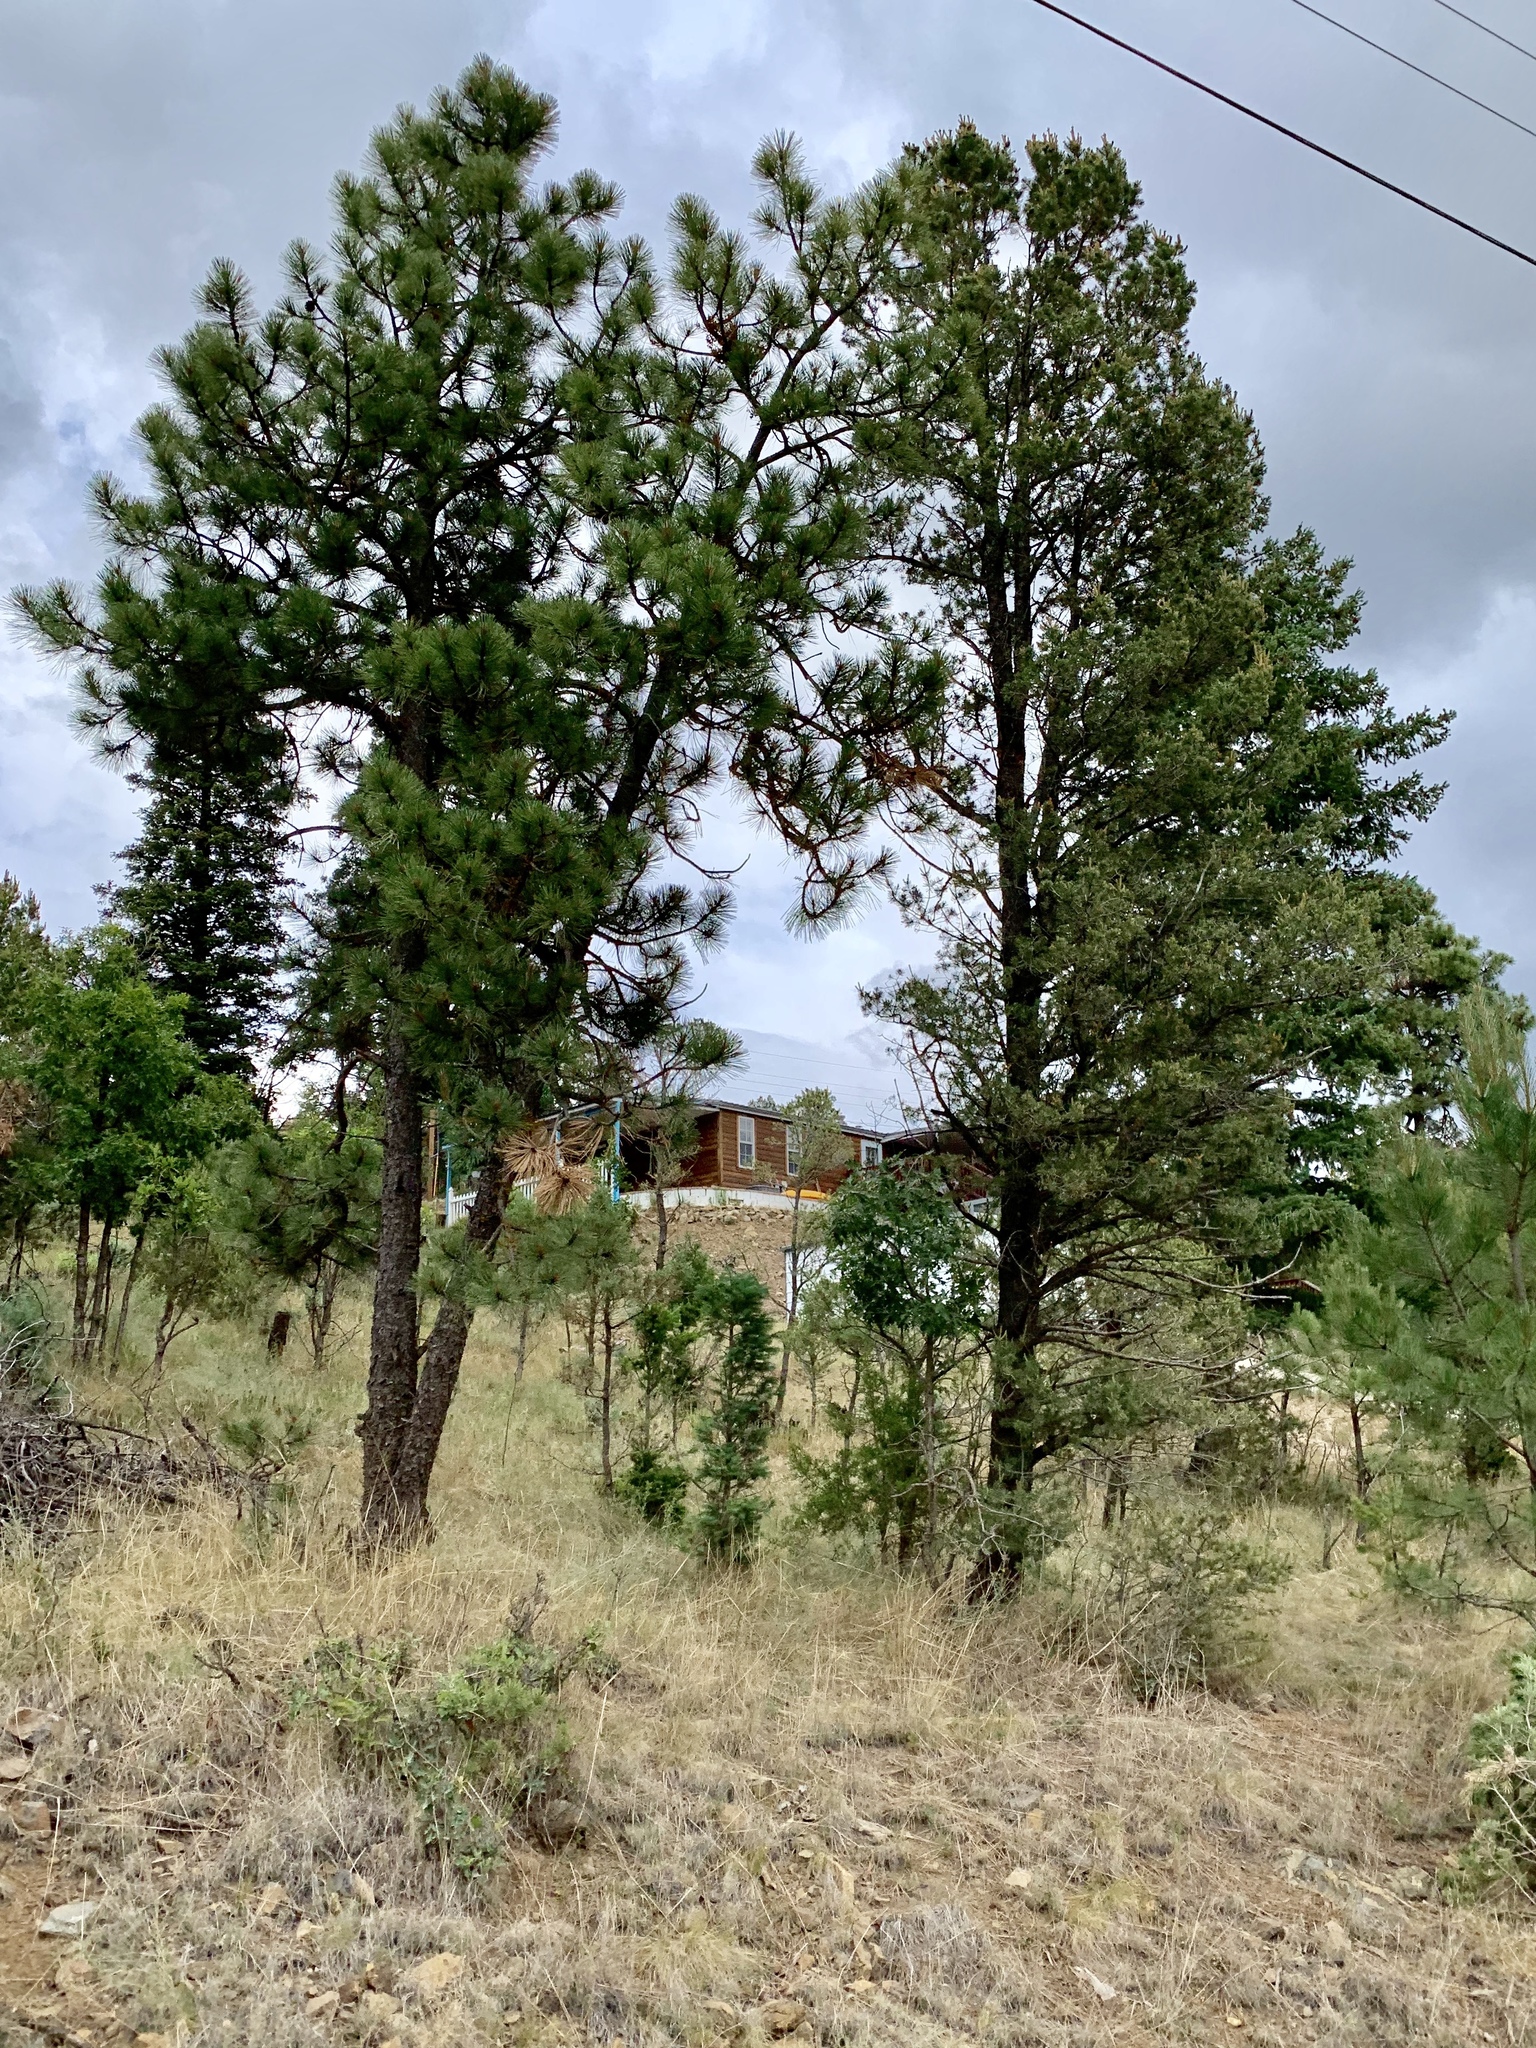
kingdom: Plantae
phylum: Tracheophyta
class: Pinopsida
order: Pinales
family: Pinaceae
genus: Pinus
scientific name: Pinus ponderosa
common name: Western yellow-pine
